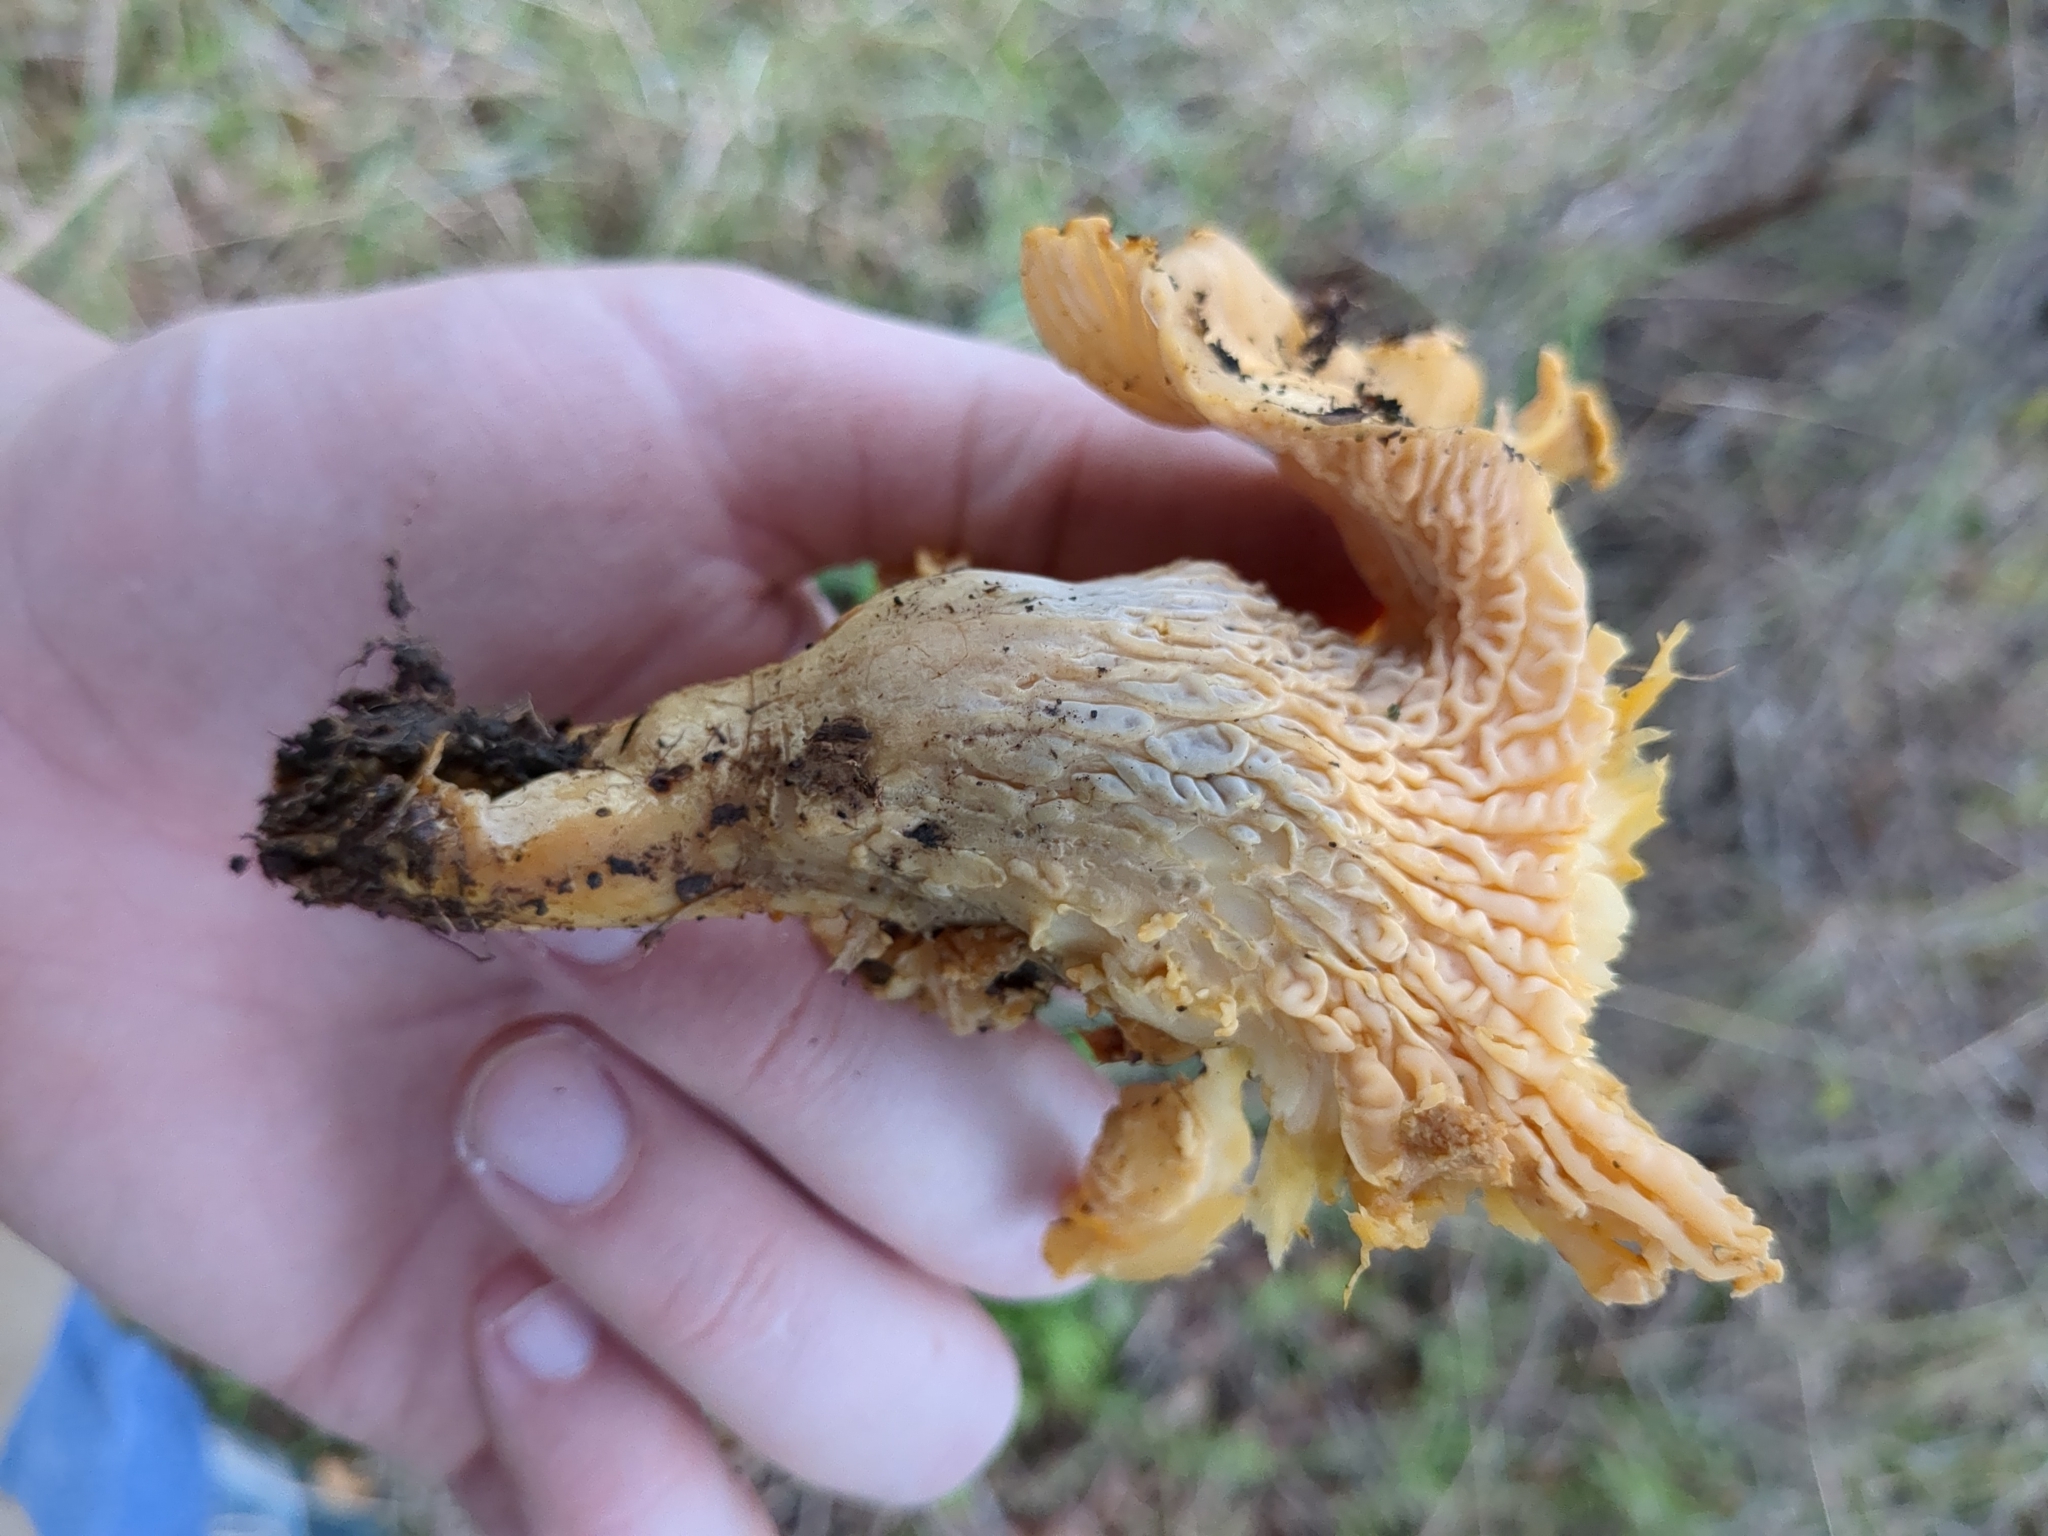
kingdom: Fungi
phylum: Basidiomycota
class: Agaricomycetes
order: Cantharellales
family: Hydnaceae
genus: Cantharellus
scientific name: Cantharellus californicus
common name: California golden chanterelle
